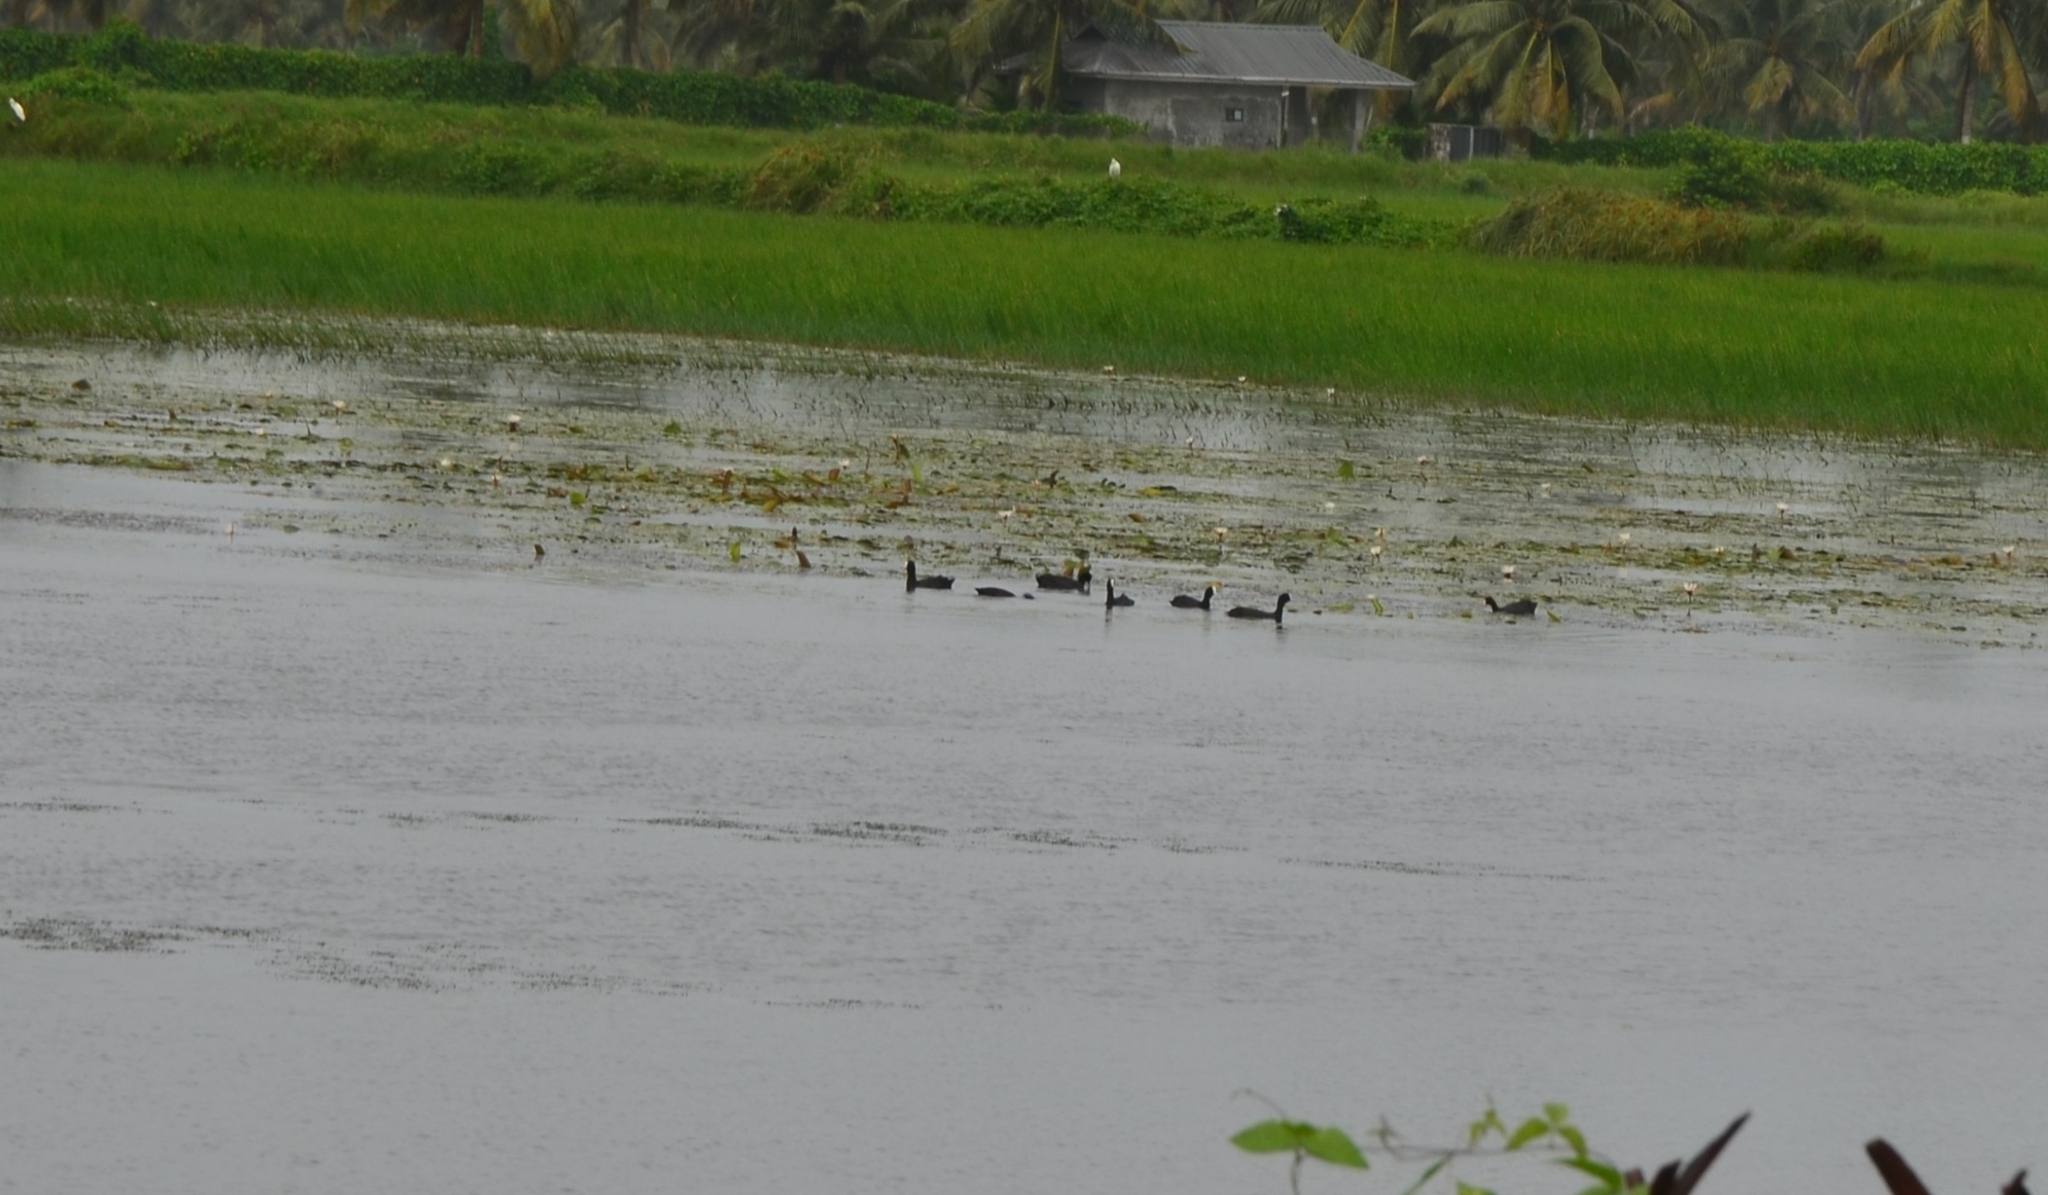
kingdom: Animalia
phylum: Chordata
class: Aves
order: Gruiformes
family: Rallidae
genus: Fulica
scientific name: Fulica atra
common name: Eurasian coot
